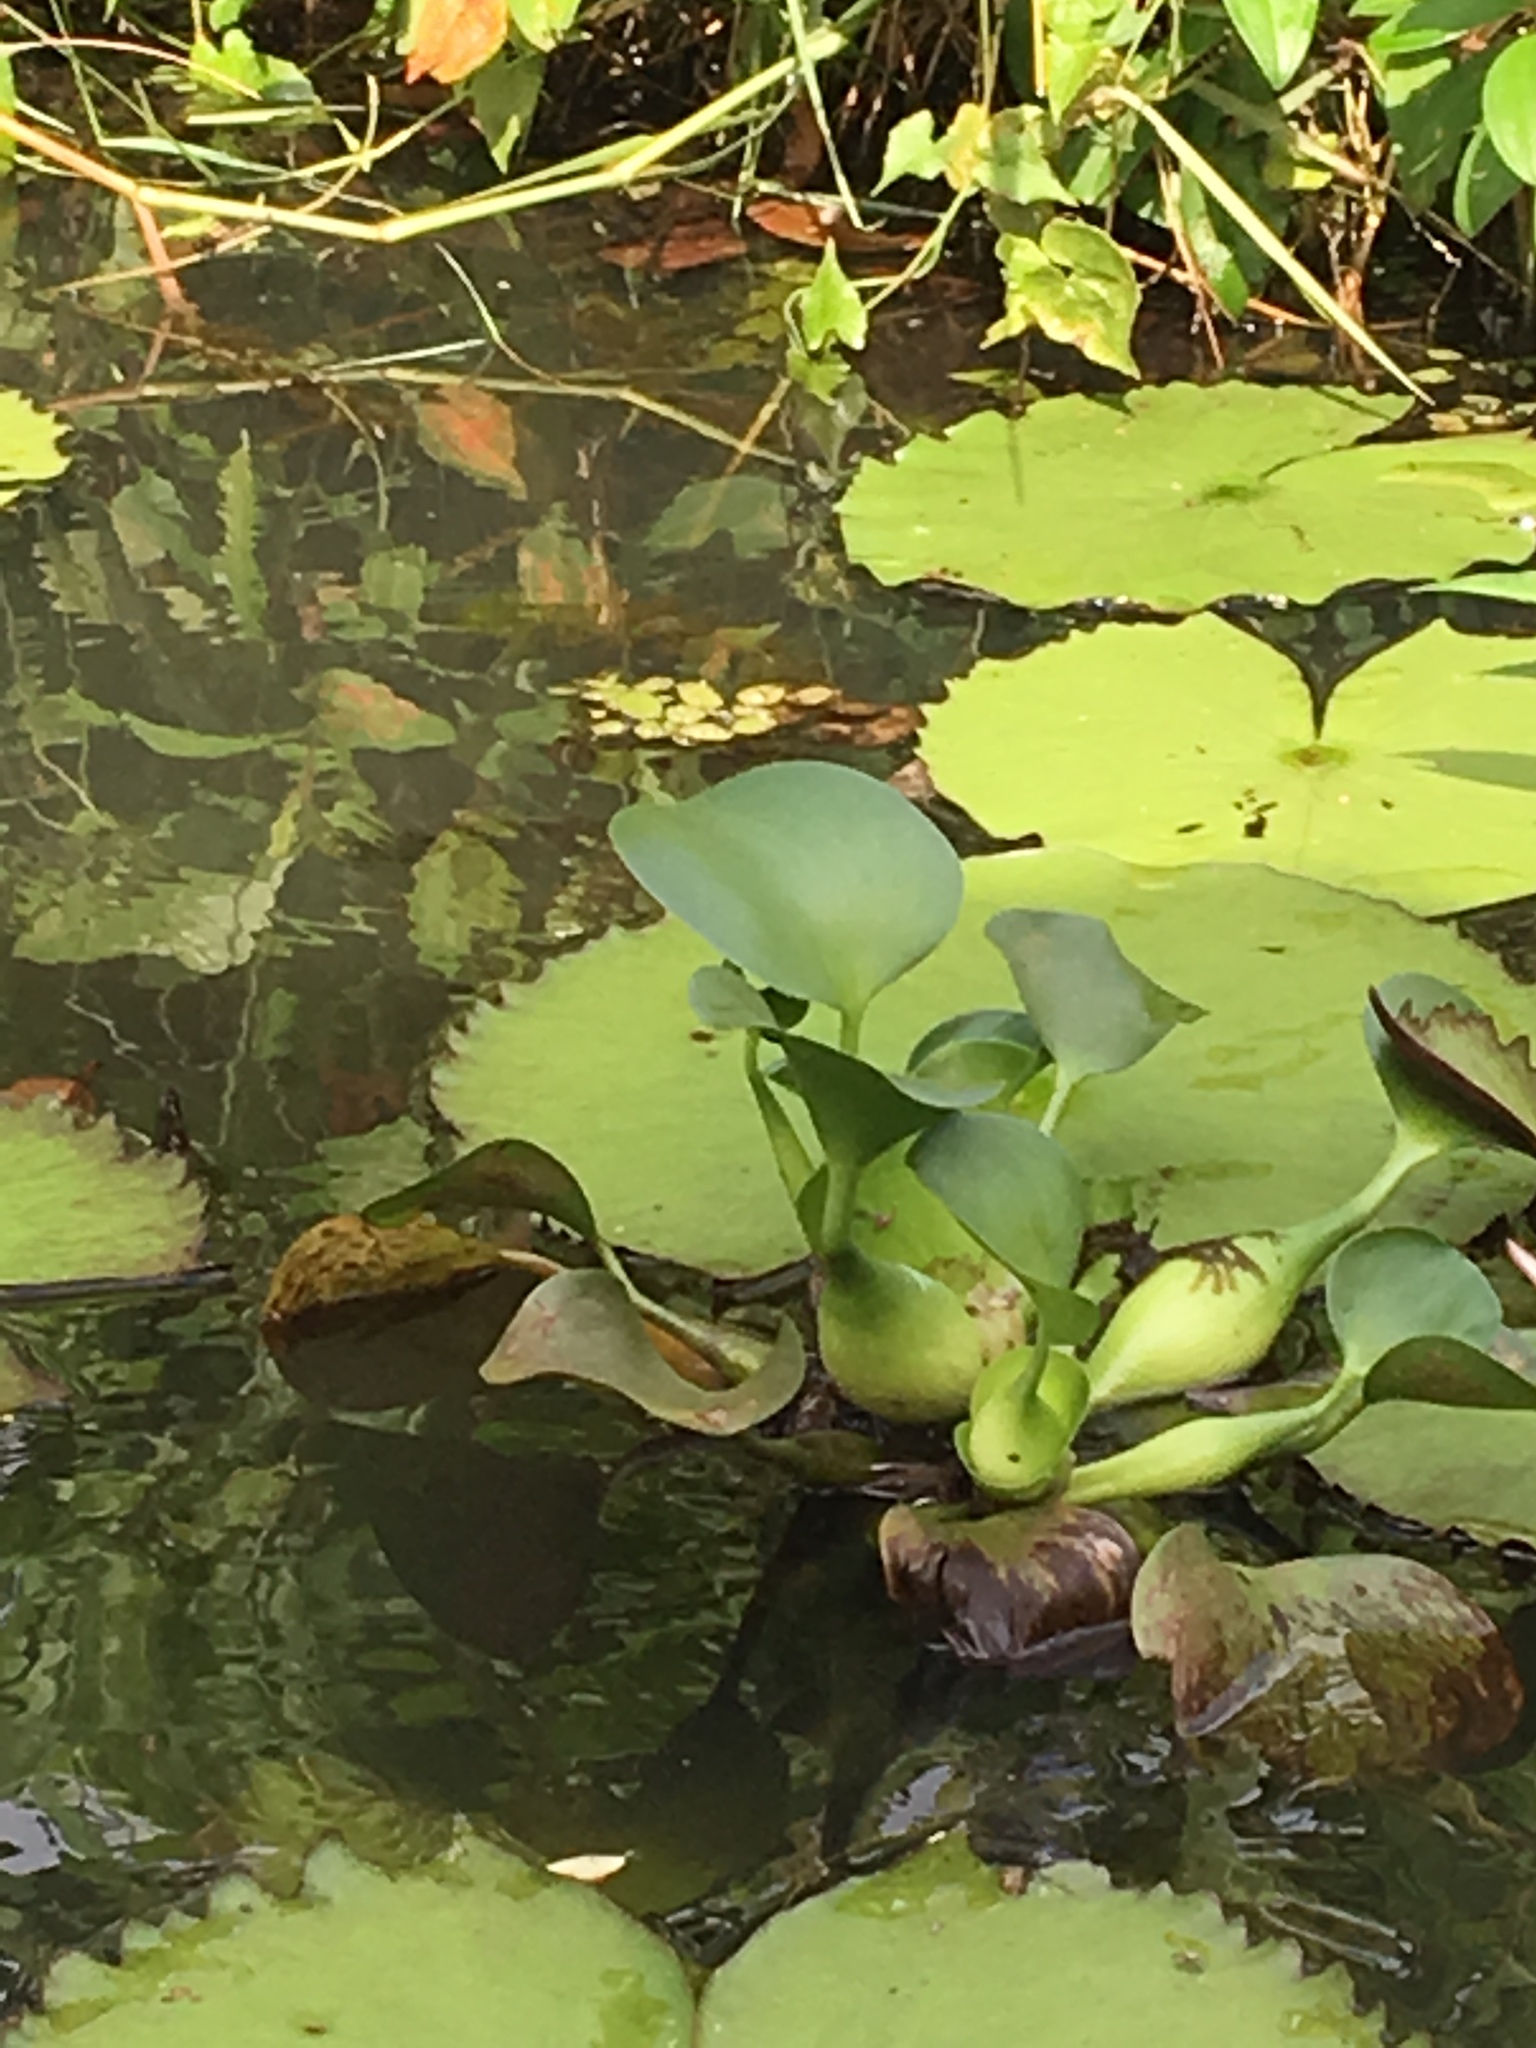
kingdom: Plantae
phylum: Tracheophyta
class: Liliopsida
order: Commelinales
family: Pontederiaceae
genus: Pontederia
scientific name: Pontederia crassipes
